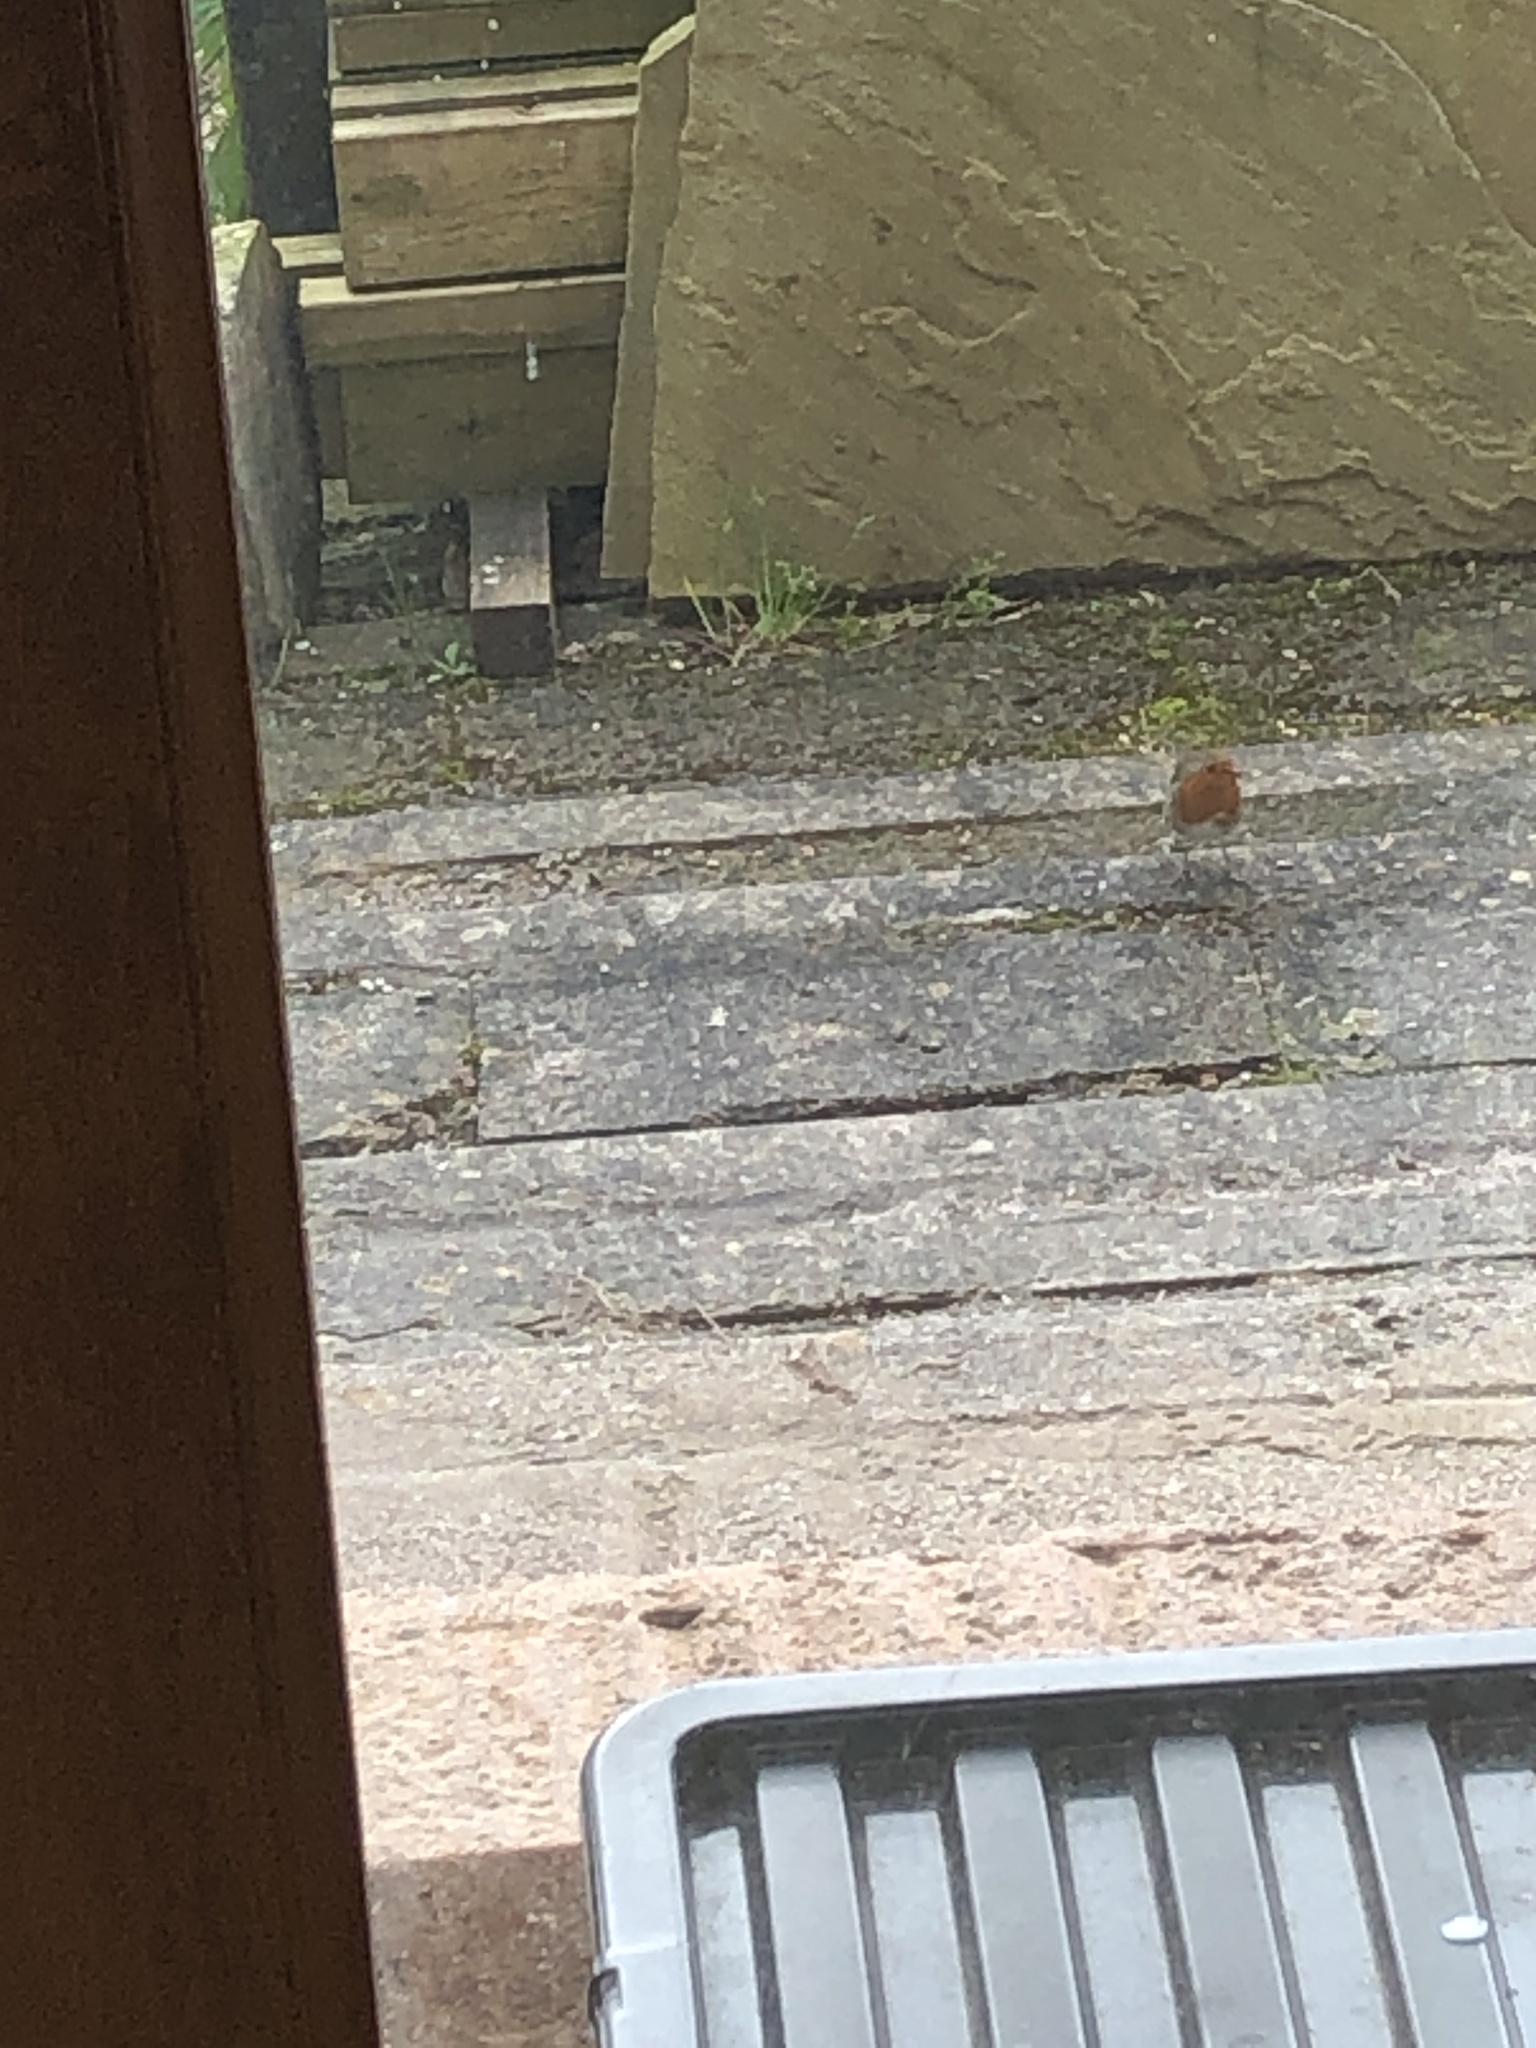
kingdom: Animalia
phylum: Chordata
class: Aves
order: Passeriformes
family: Muscicapidae
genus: Erithacus
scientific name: Erithacus rubecula
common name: European robin
